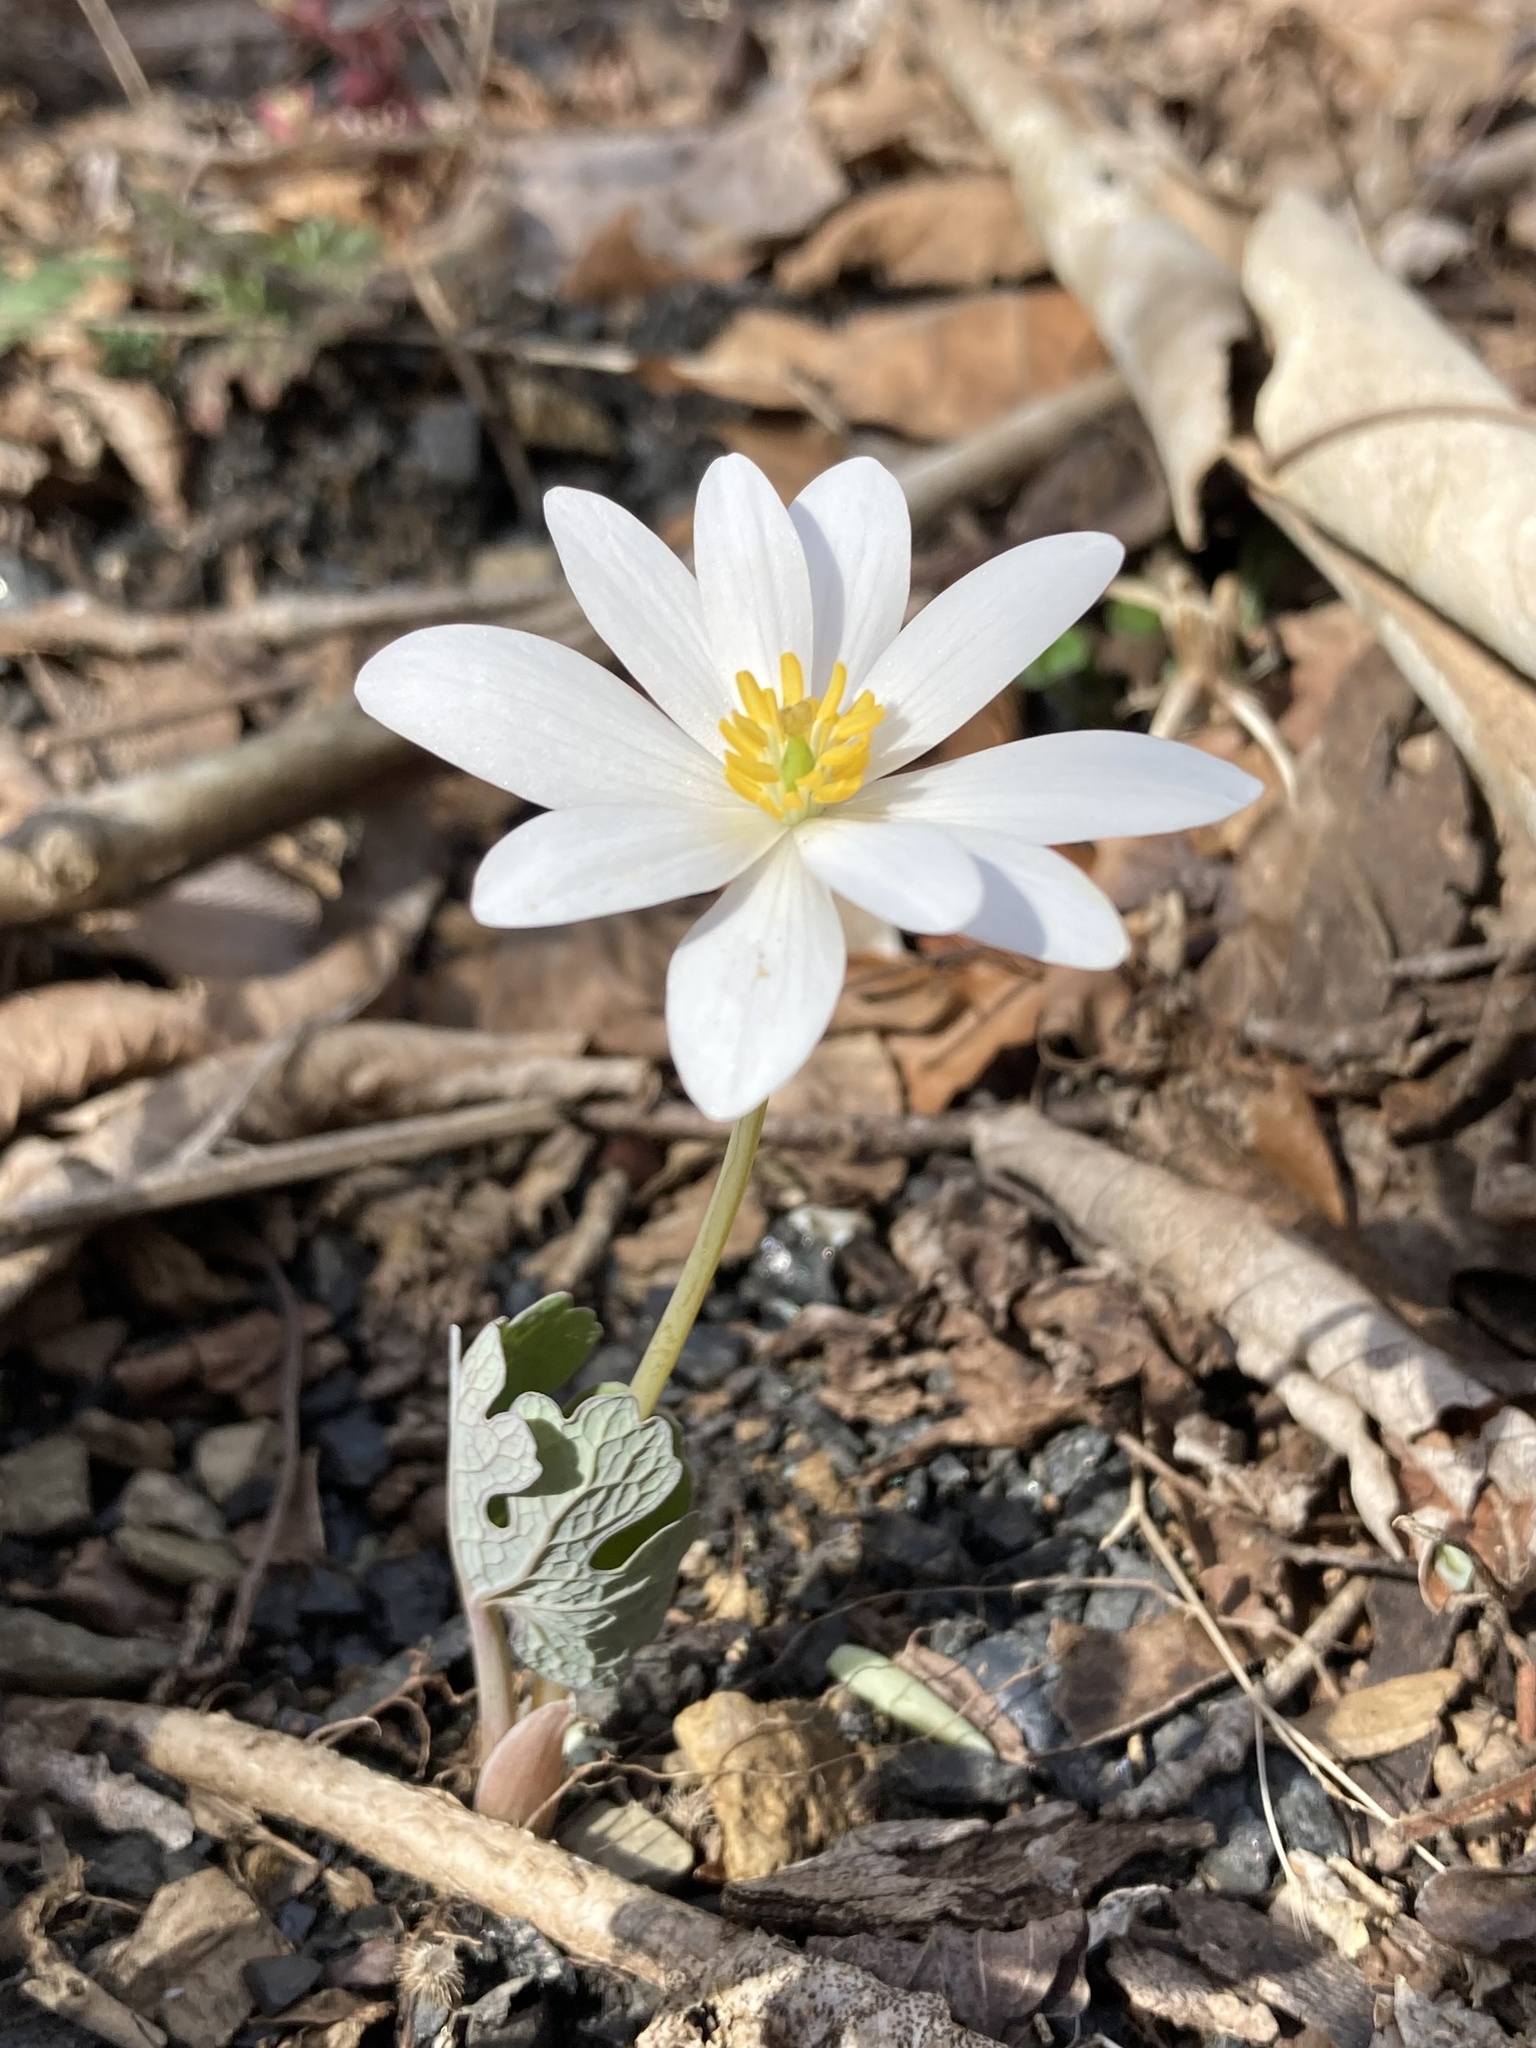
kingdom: Plantae
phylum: Tracheophyta
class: Magnoliopsida
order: Ranunculales
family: Papaveraceae
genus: Sanguinaria
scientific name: Sanguinaria canadensis
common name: Bloodroot
